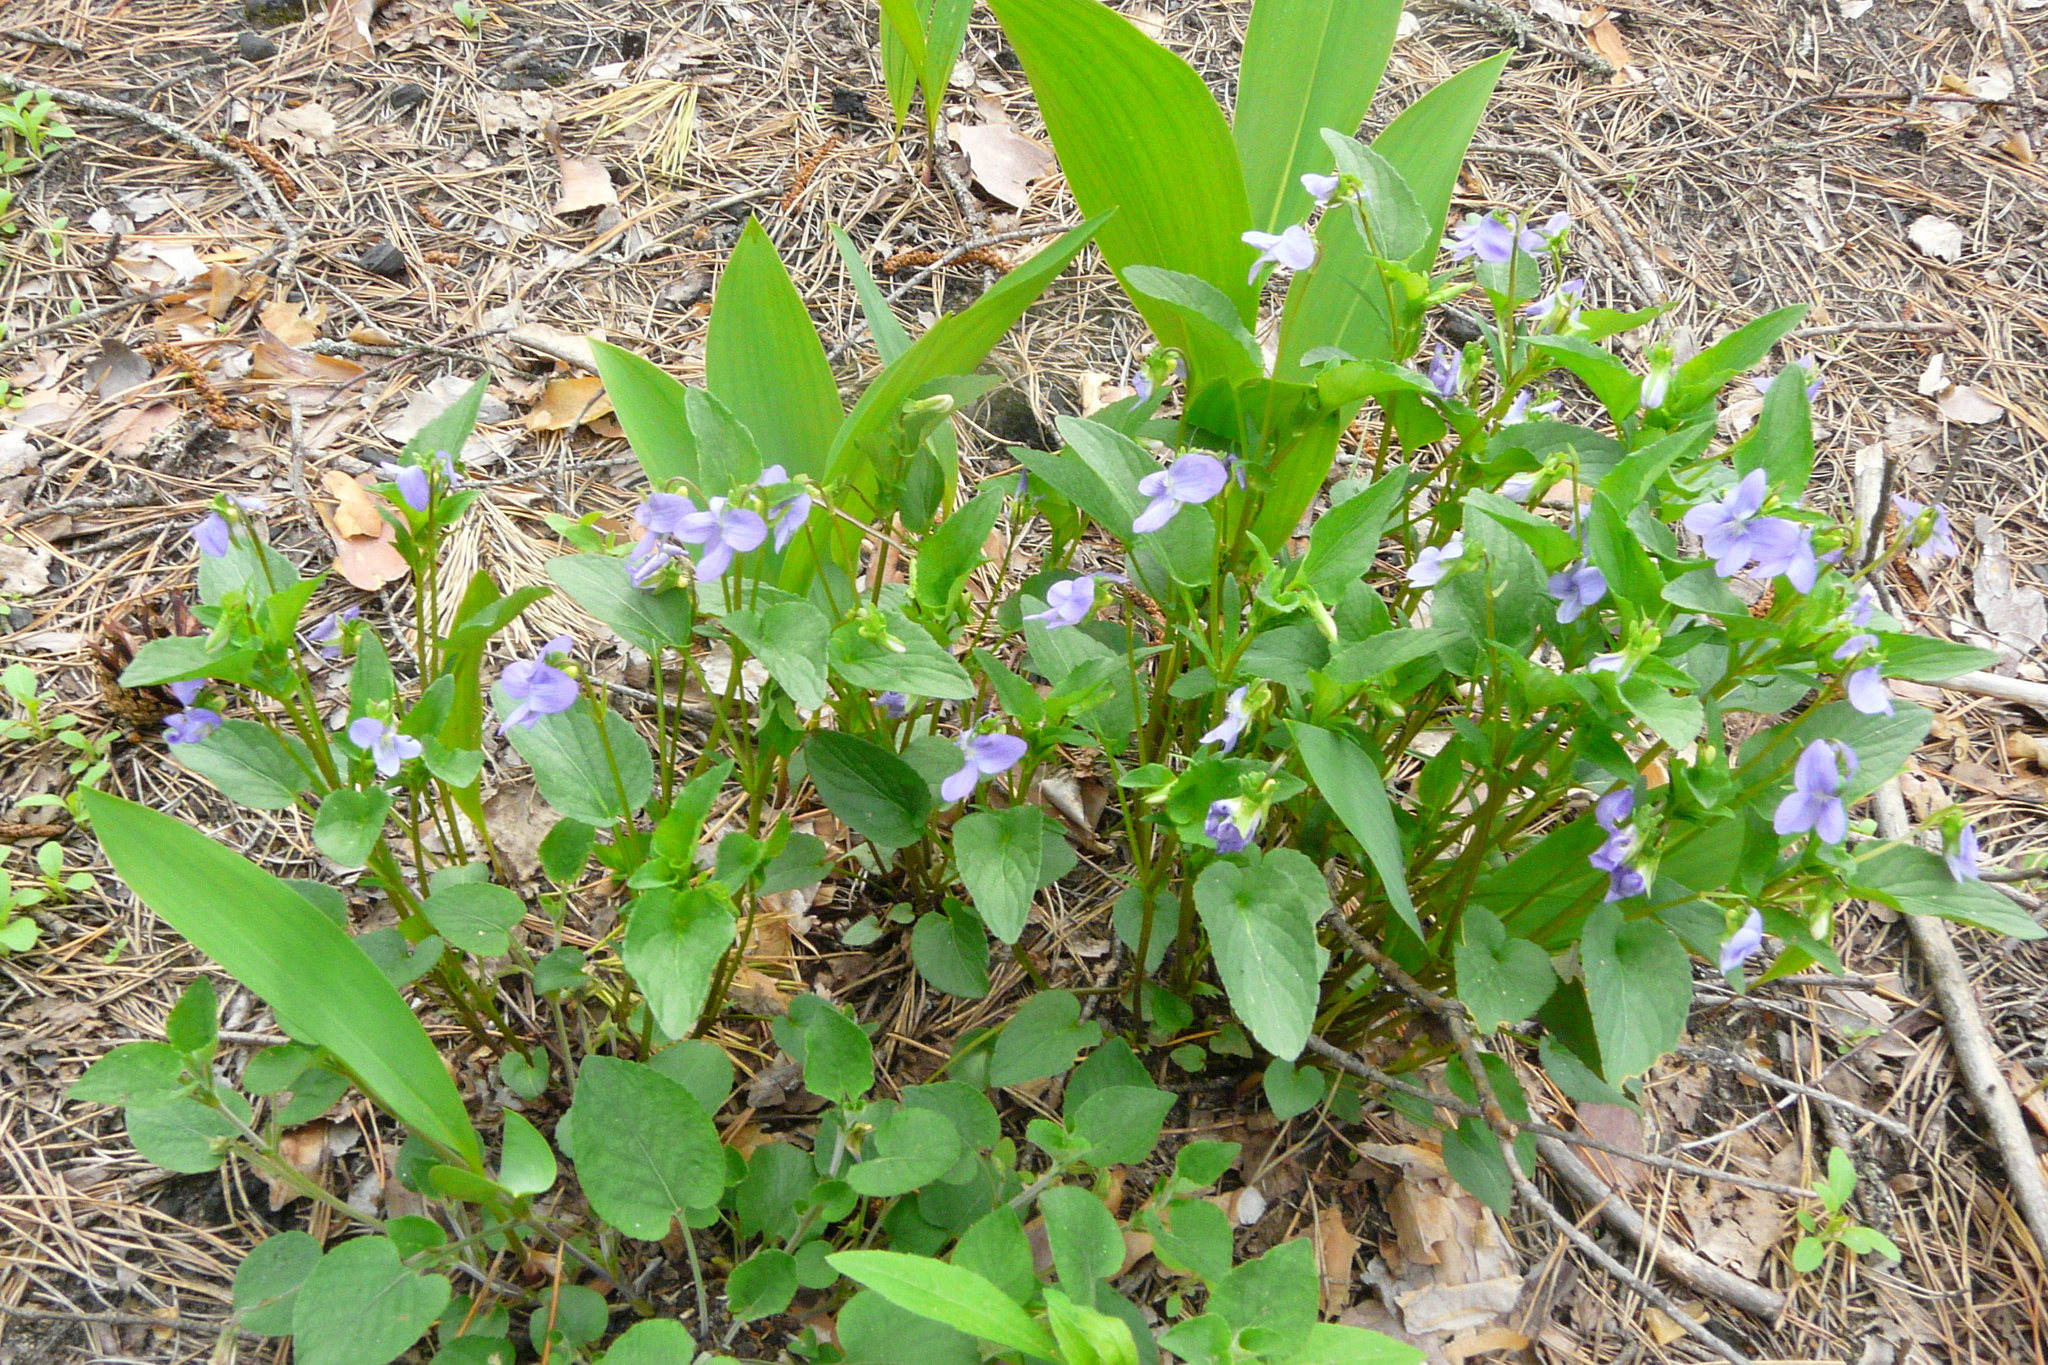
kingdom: Plantae
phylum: Tracheophyta
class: Magnoliopsida
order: Malpighiales
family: Violaceae
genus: Viola
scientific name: Viola canina
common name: Heath dog-violet
